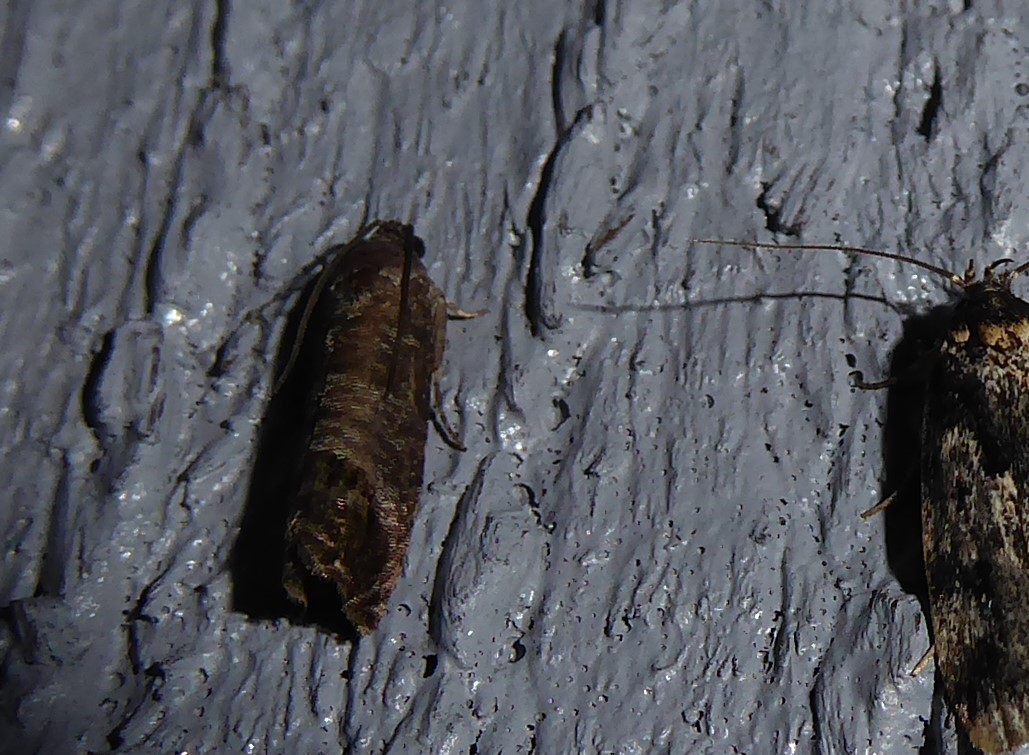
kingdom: Animalia
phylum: Arthropoda
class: Insecta
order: Lepidoptera
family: Tortricidae
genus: Cydia
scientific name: Cydia pomonella
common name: Codling moth
